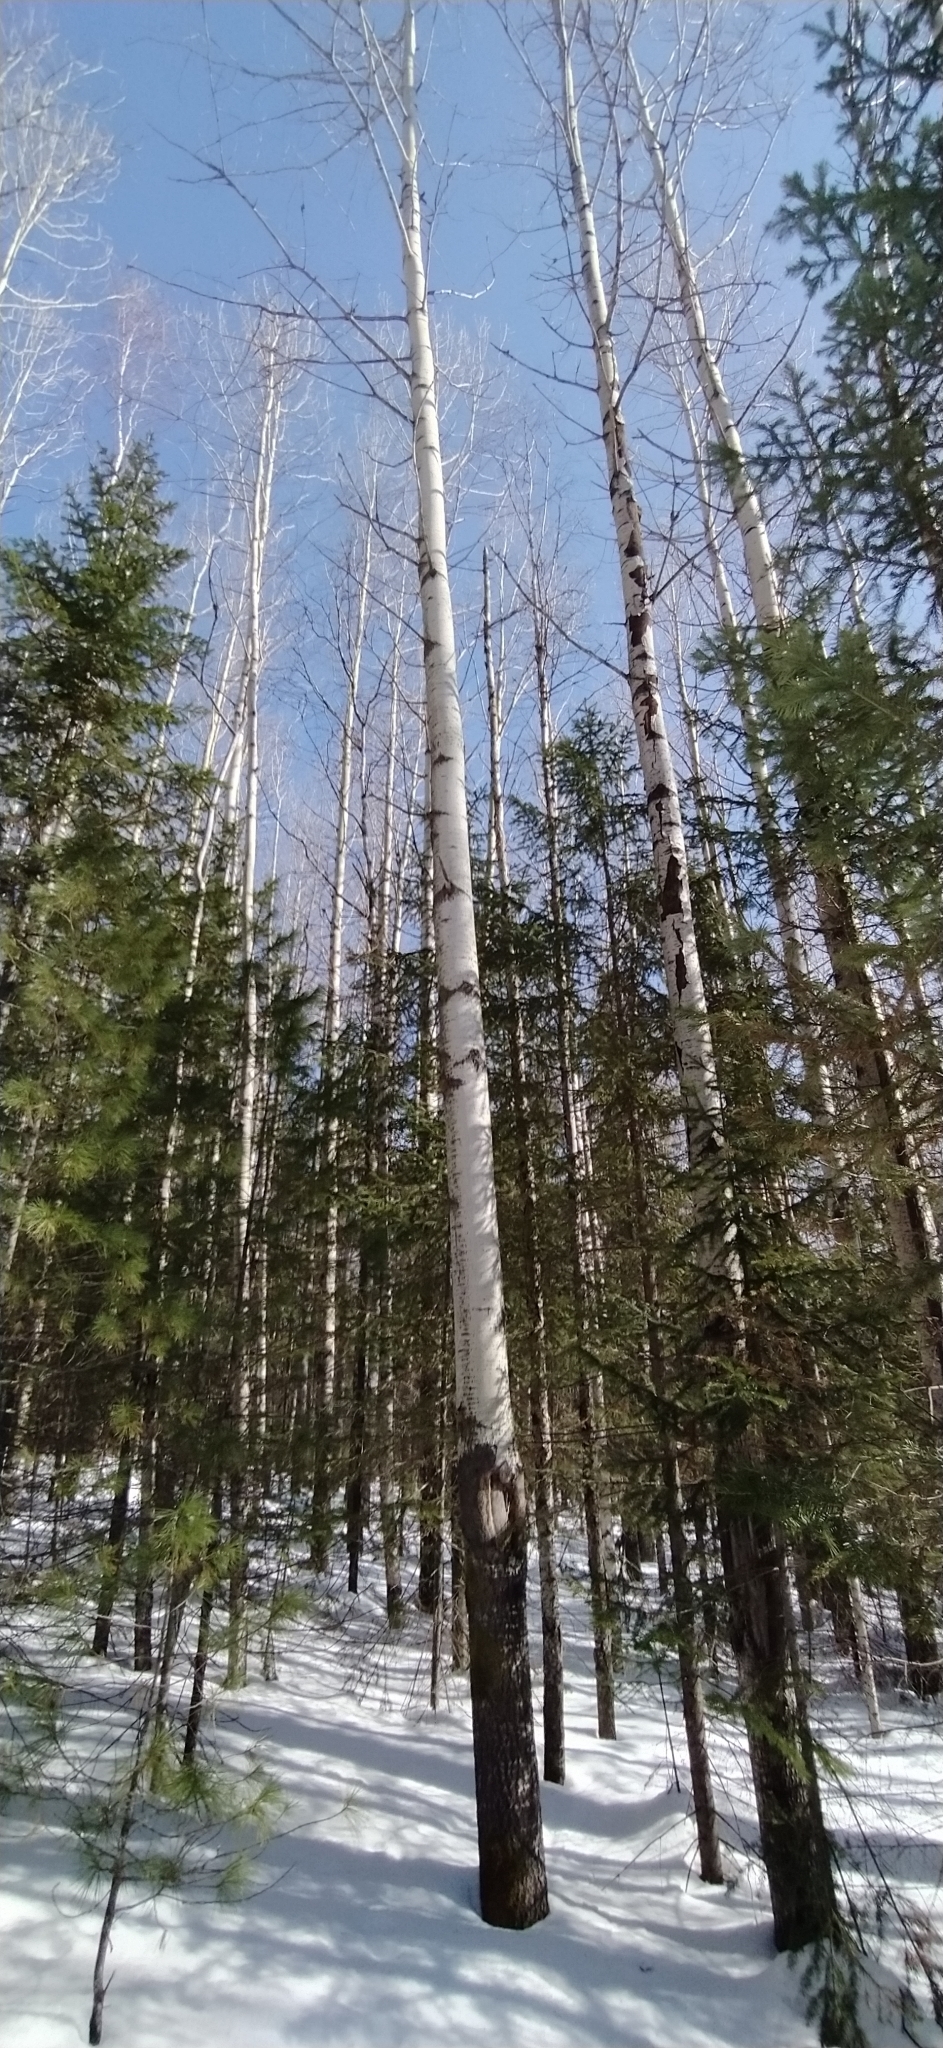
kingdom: Plantae
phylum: Tracheophyta
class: Magnoliopsida
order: Malpighiales
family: Salicaceae
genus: Populus
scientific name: Populus tremula
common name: European aspen
